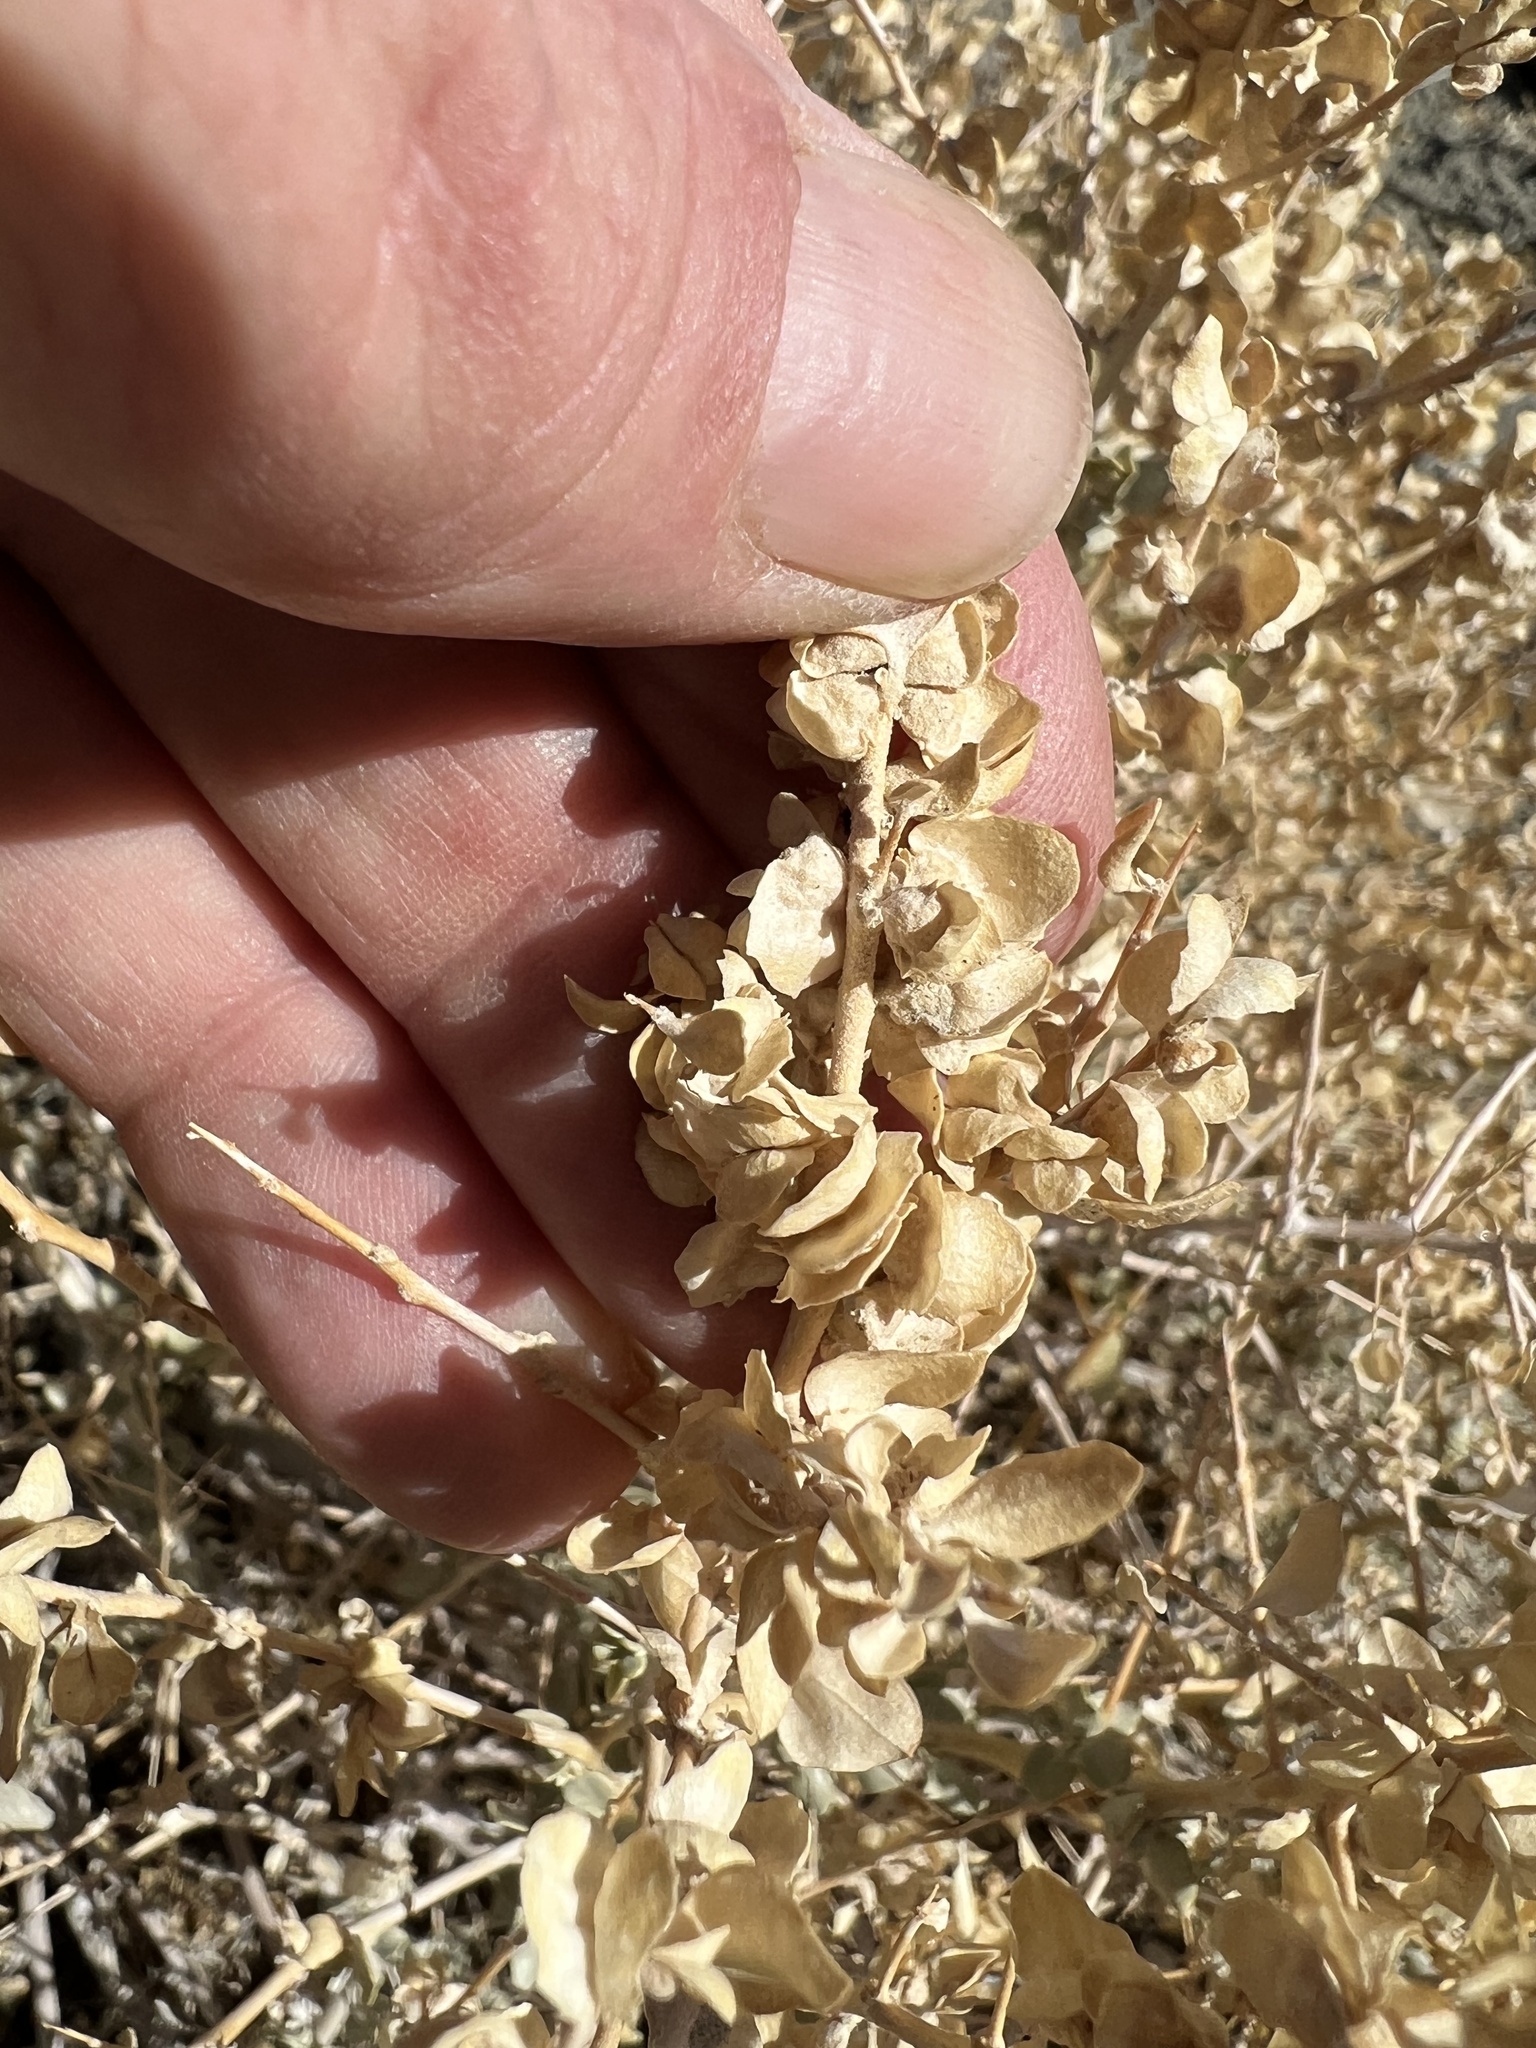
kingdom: Plantae
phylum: Tracheophyta
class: Magnoliopsida
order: Caryophyllales
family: Amaranthaceae
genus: Atriplex
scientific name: Atriplex confertifolia
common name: Shadscale
